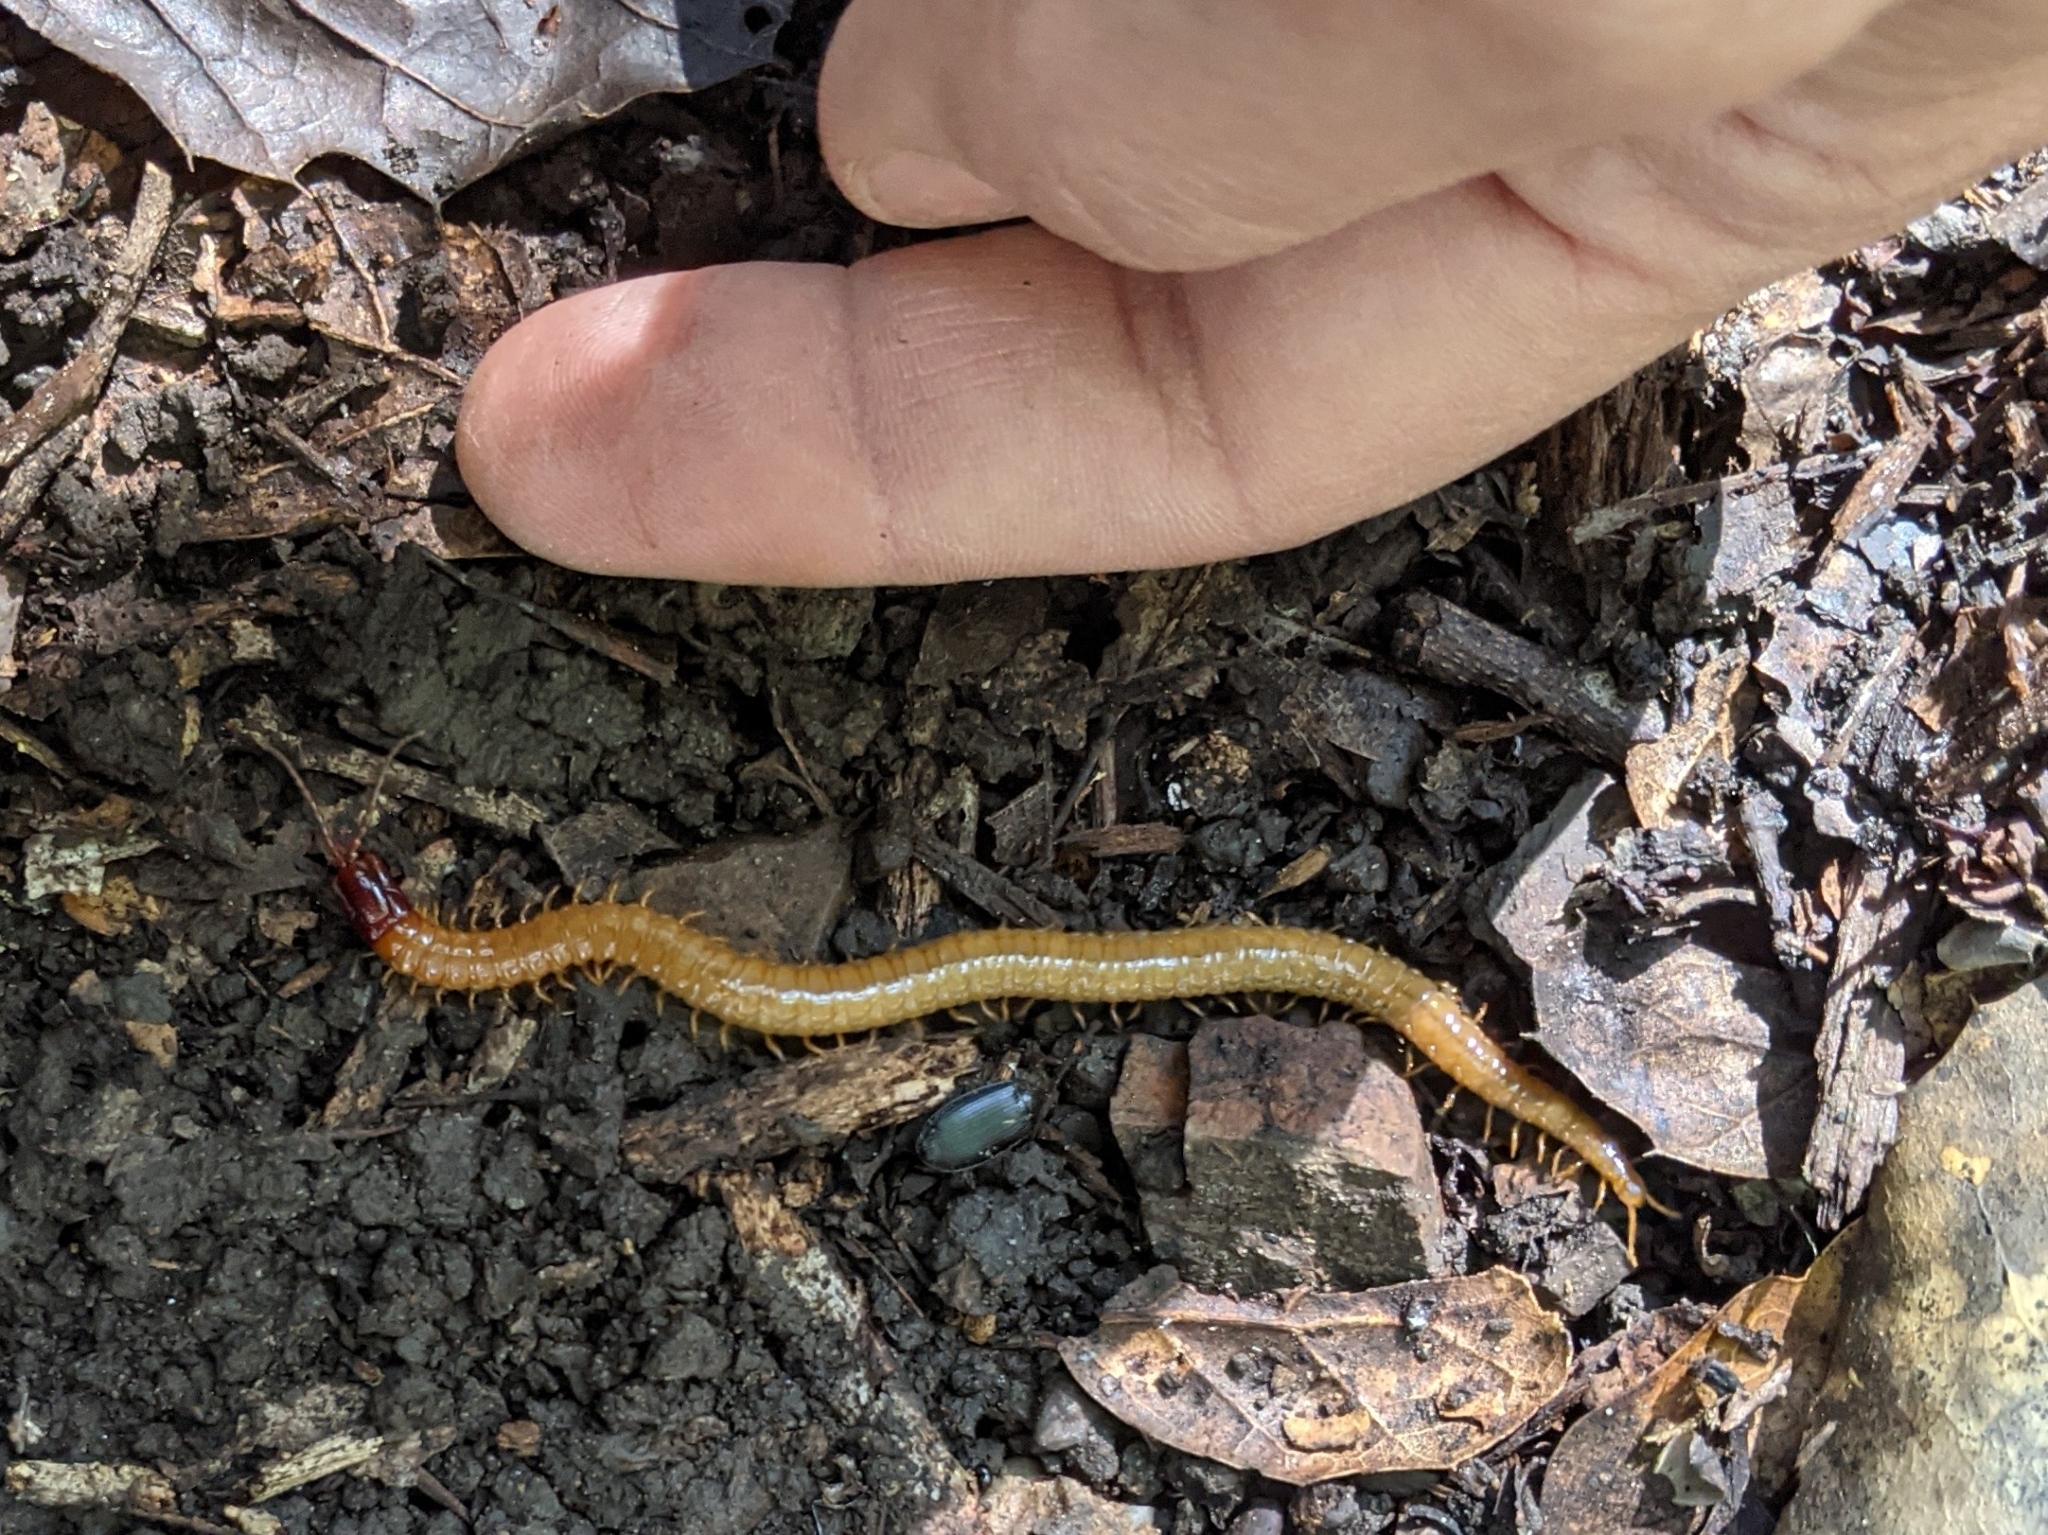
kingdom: Animalia
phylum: Arthropoda
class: Chilopoda
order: Geophilomorpha
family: Mecistocephalidae
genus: Dicellophilus
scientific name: Dicellophilus limatus
